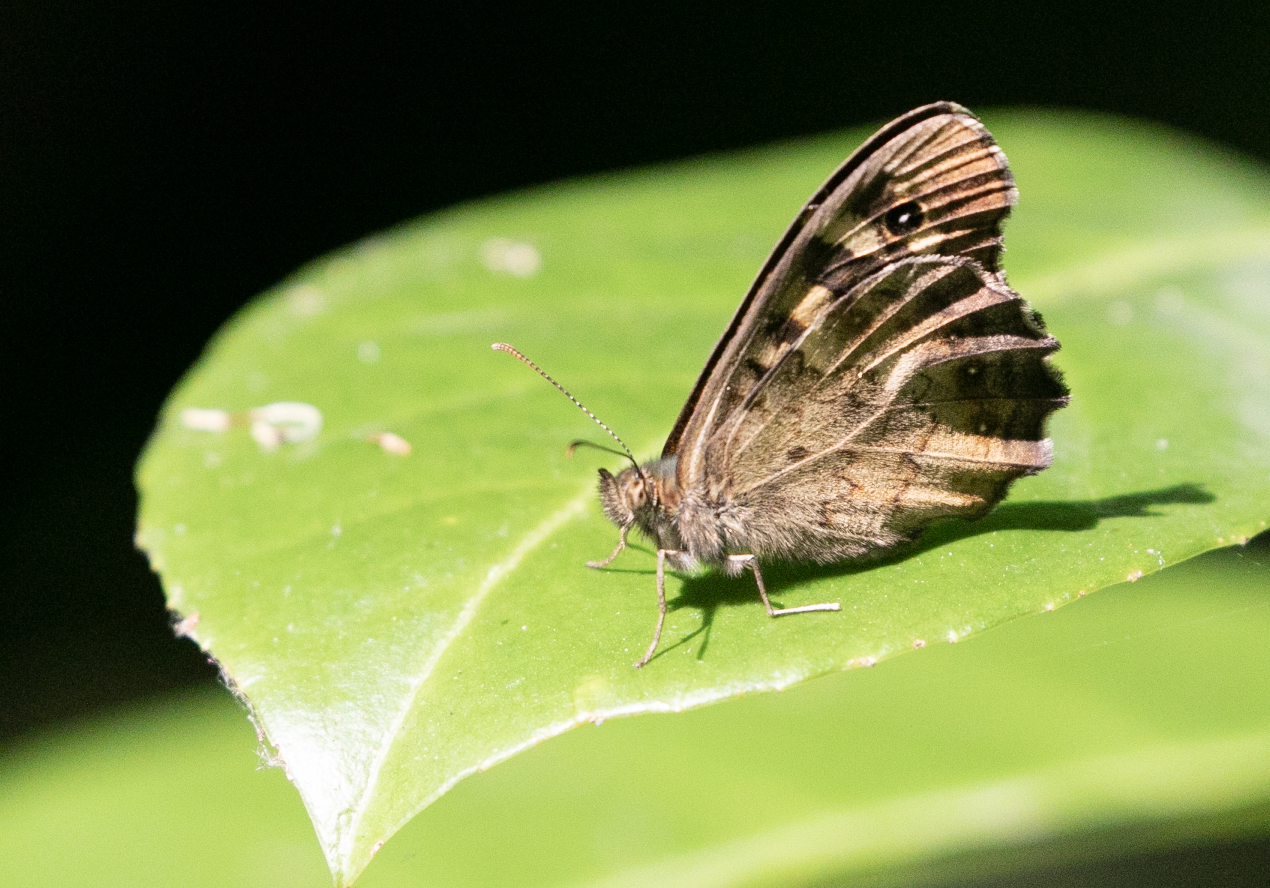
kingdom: Animalia
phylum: Arthropoda
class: Insecta
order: Lepidoptera
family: Nymphalidae
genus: Pararge
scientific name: Pararge aegeria
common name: Speckled wood
